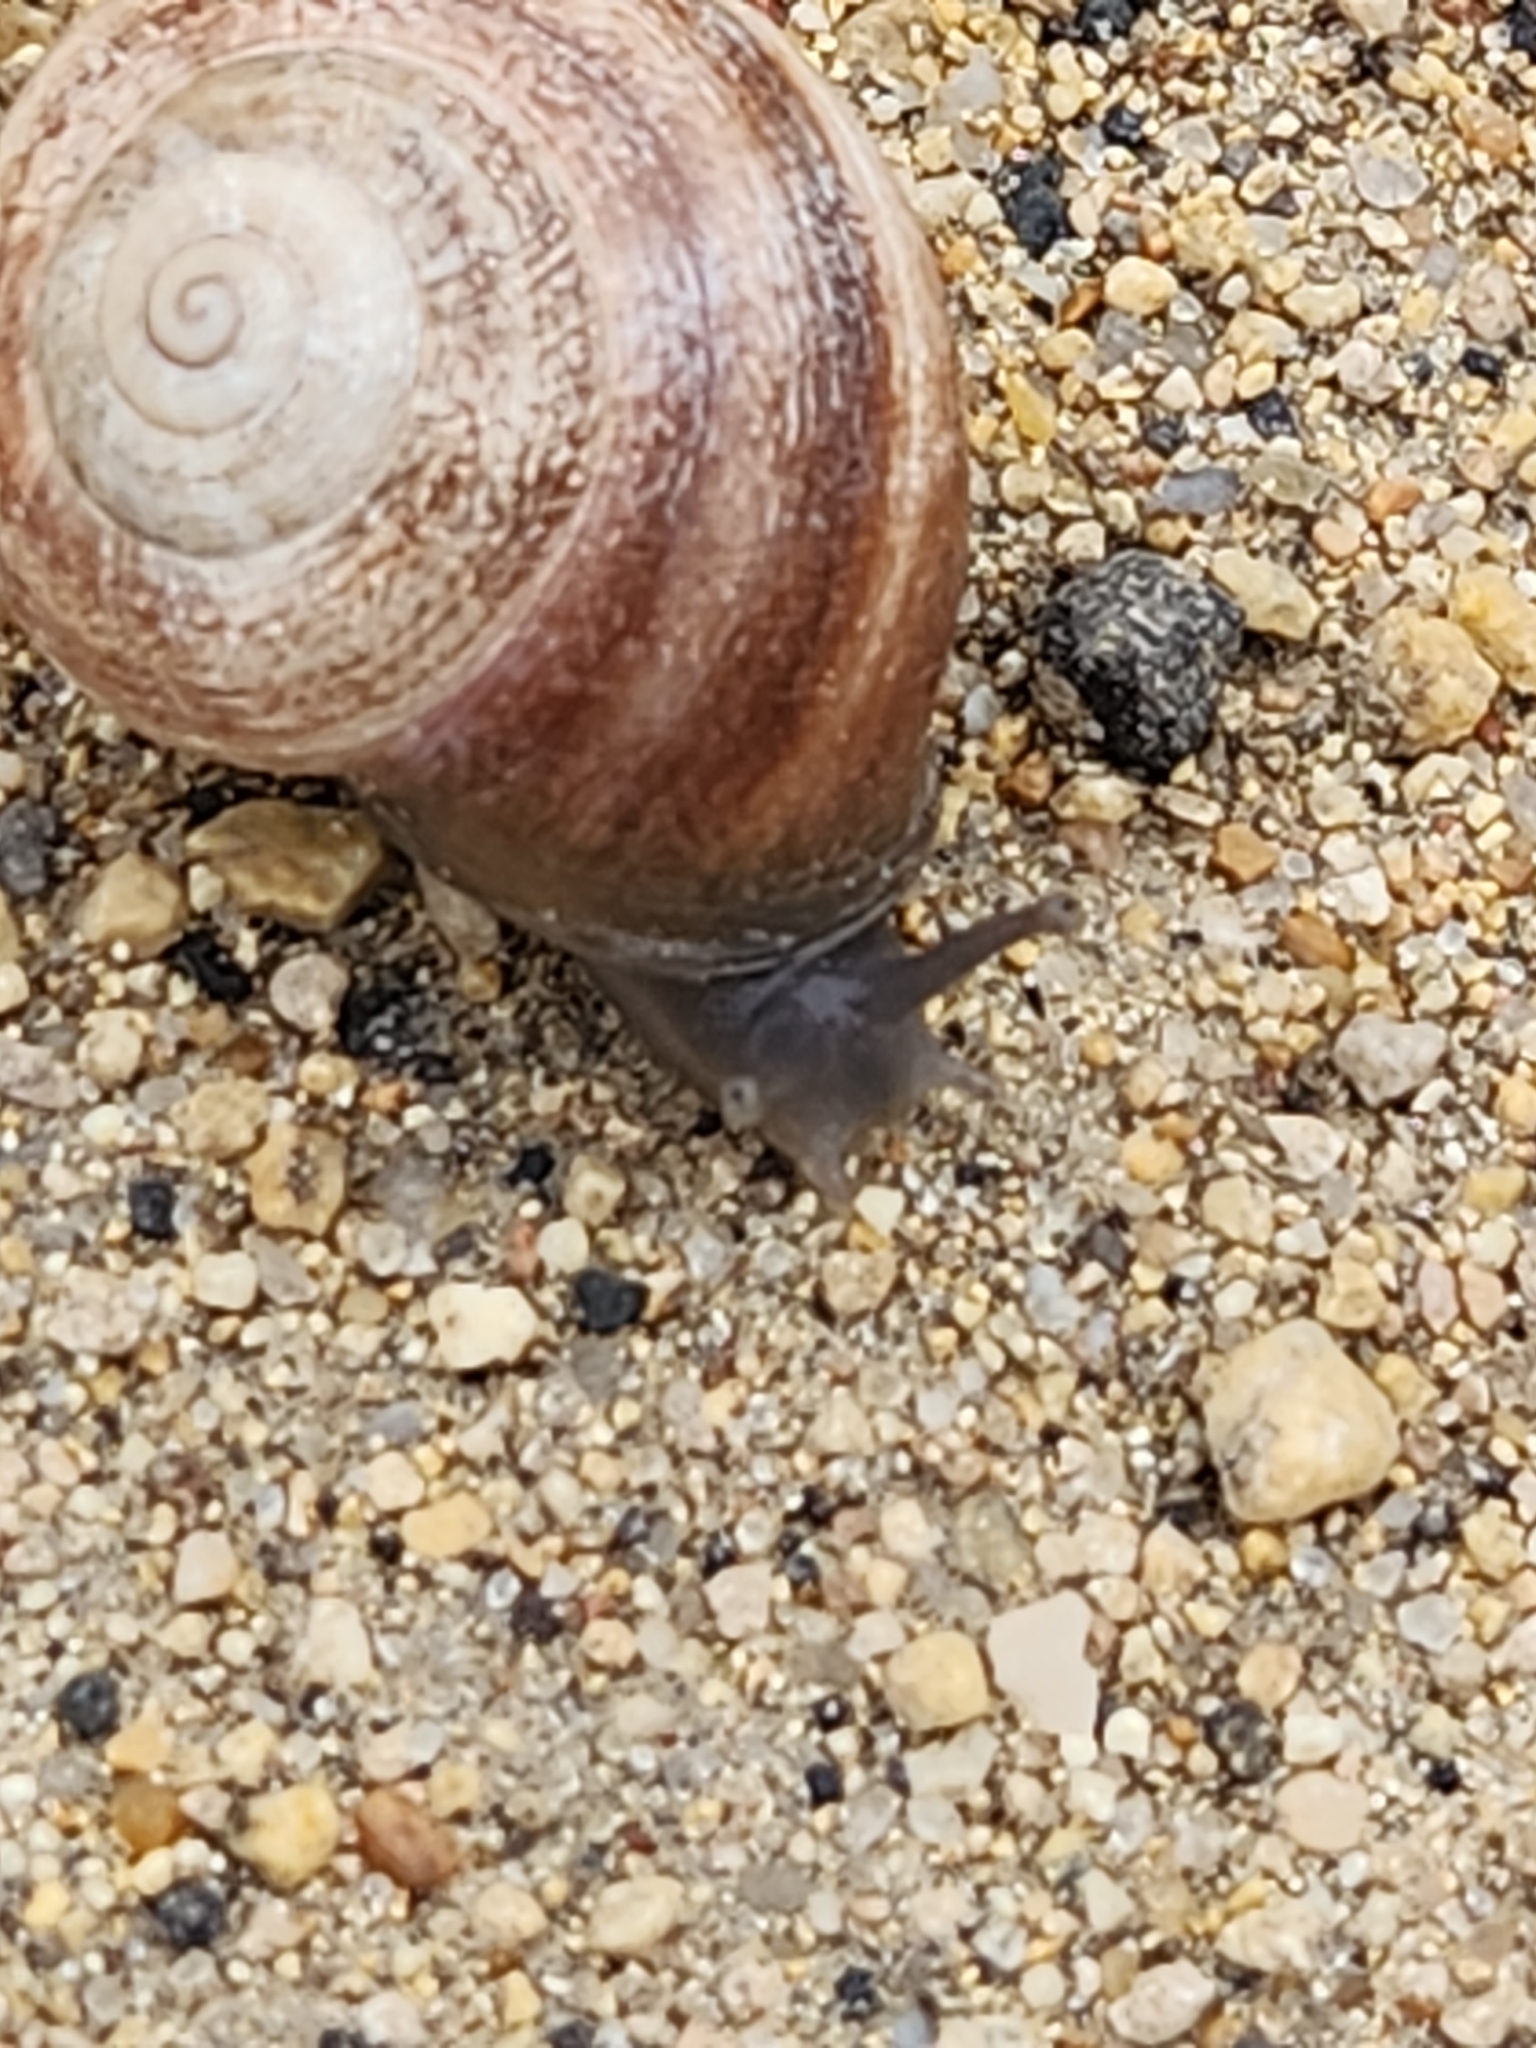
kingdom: Animalia
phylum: Mollusca
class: Gastropoda
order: Stylommatophora
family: Helicidae
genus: Otala
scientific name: Otala lactea
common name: Milk snail
